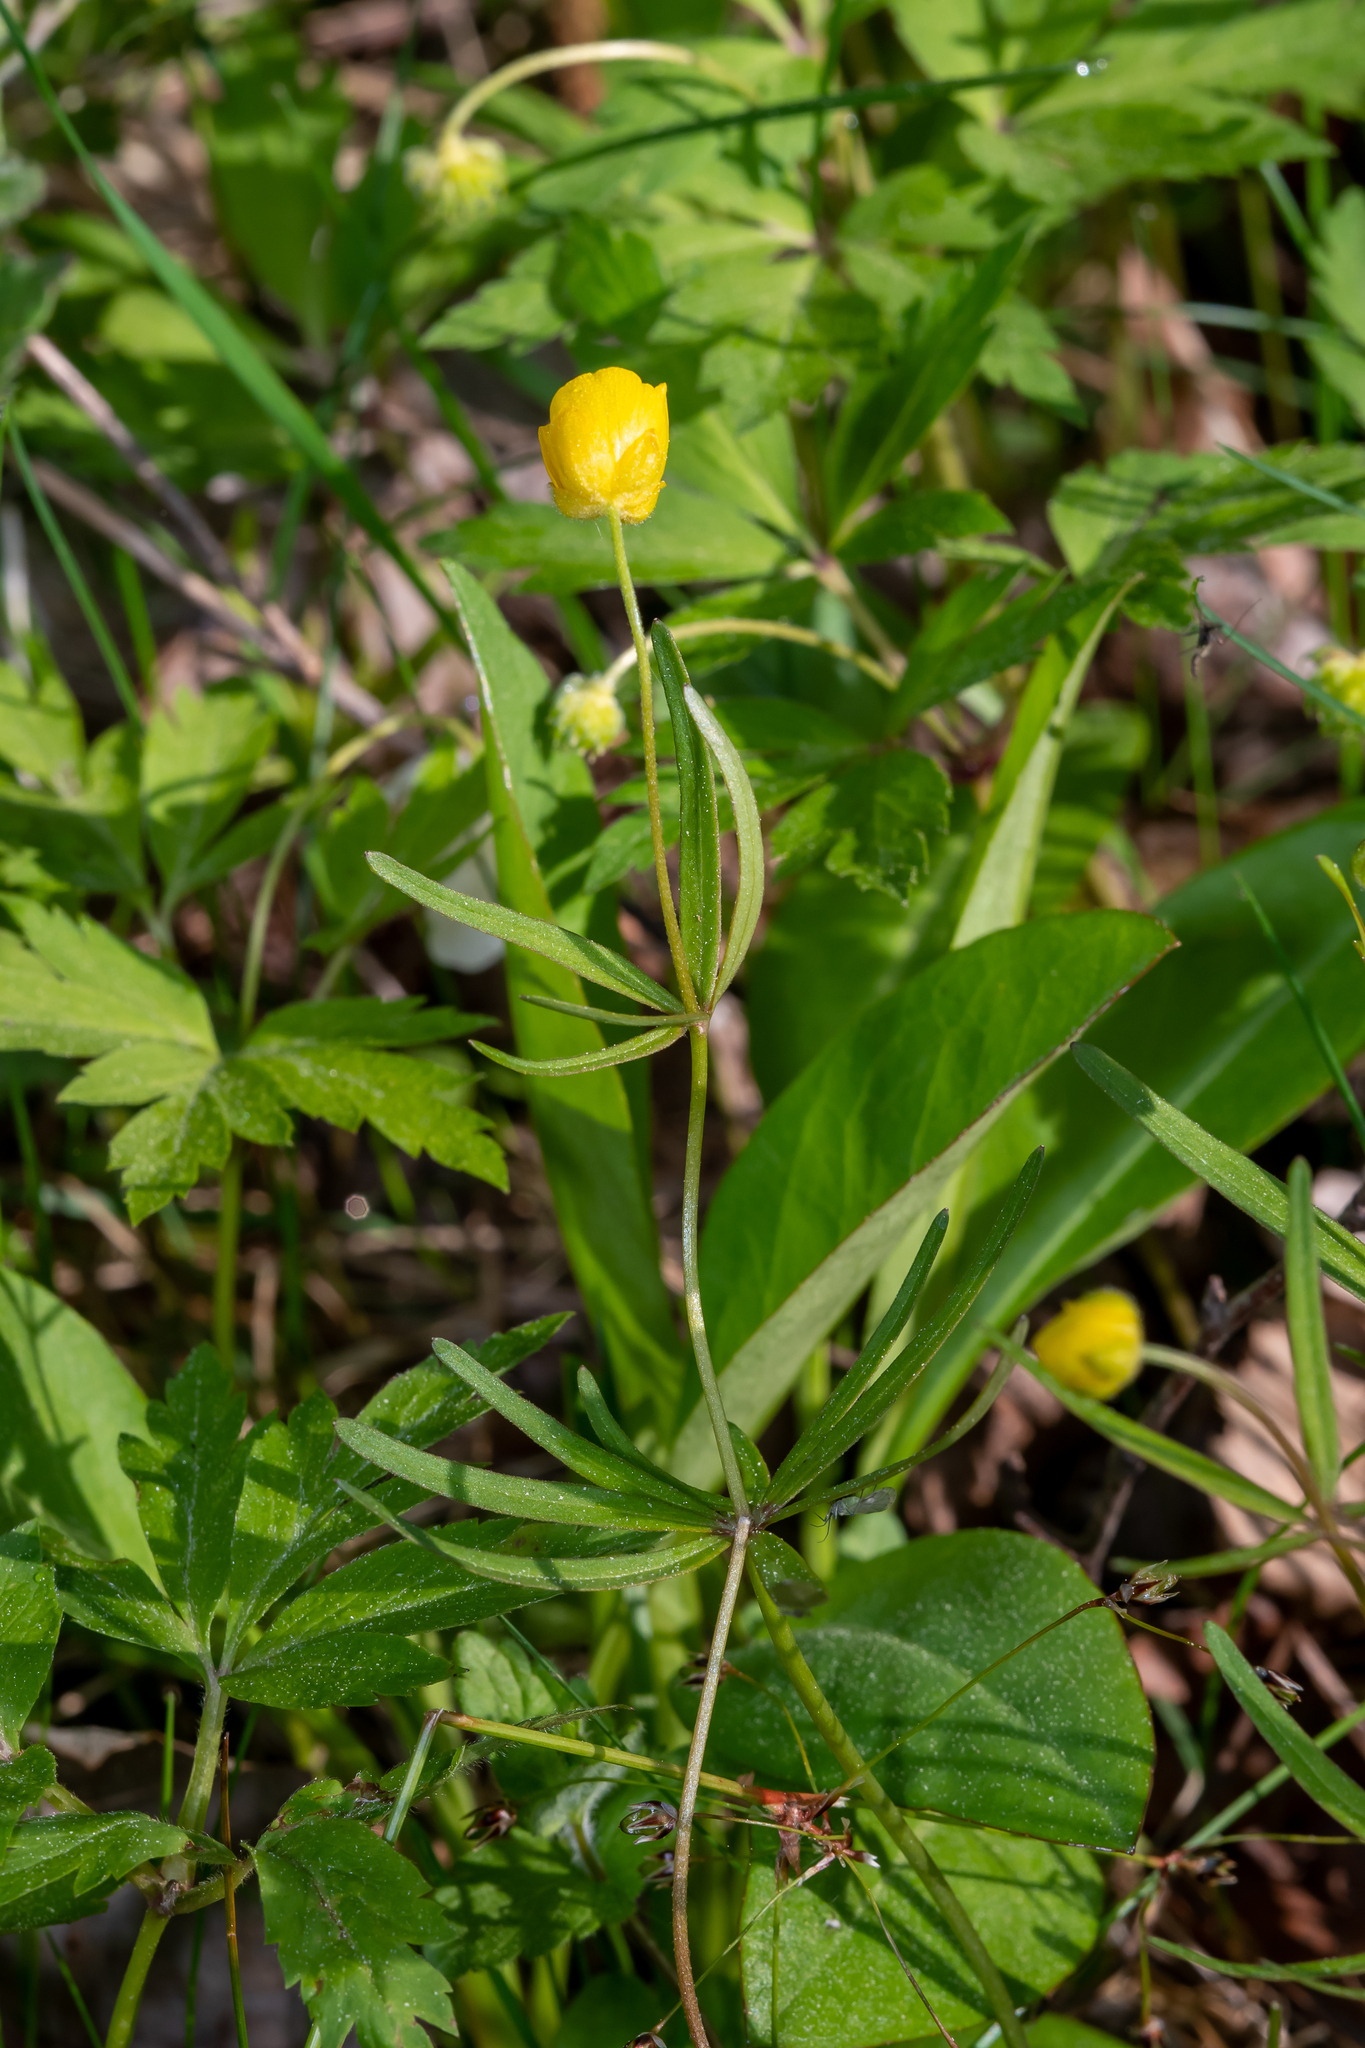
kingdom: Plantae
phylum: Tracheophyta
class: Magnoliopsida
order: Ranunculales
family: Ranunculaceae
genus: Ranunculus
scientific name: Ranunculus auricomus
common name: Goldilocks buttercup
